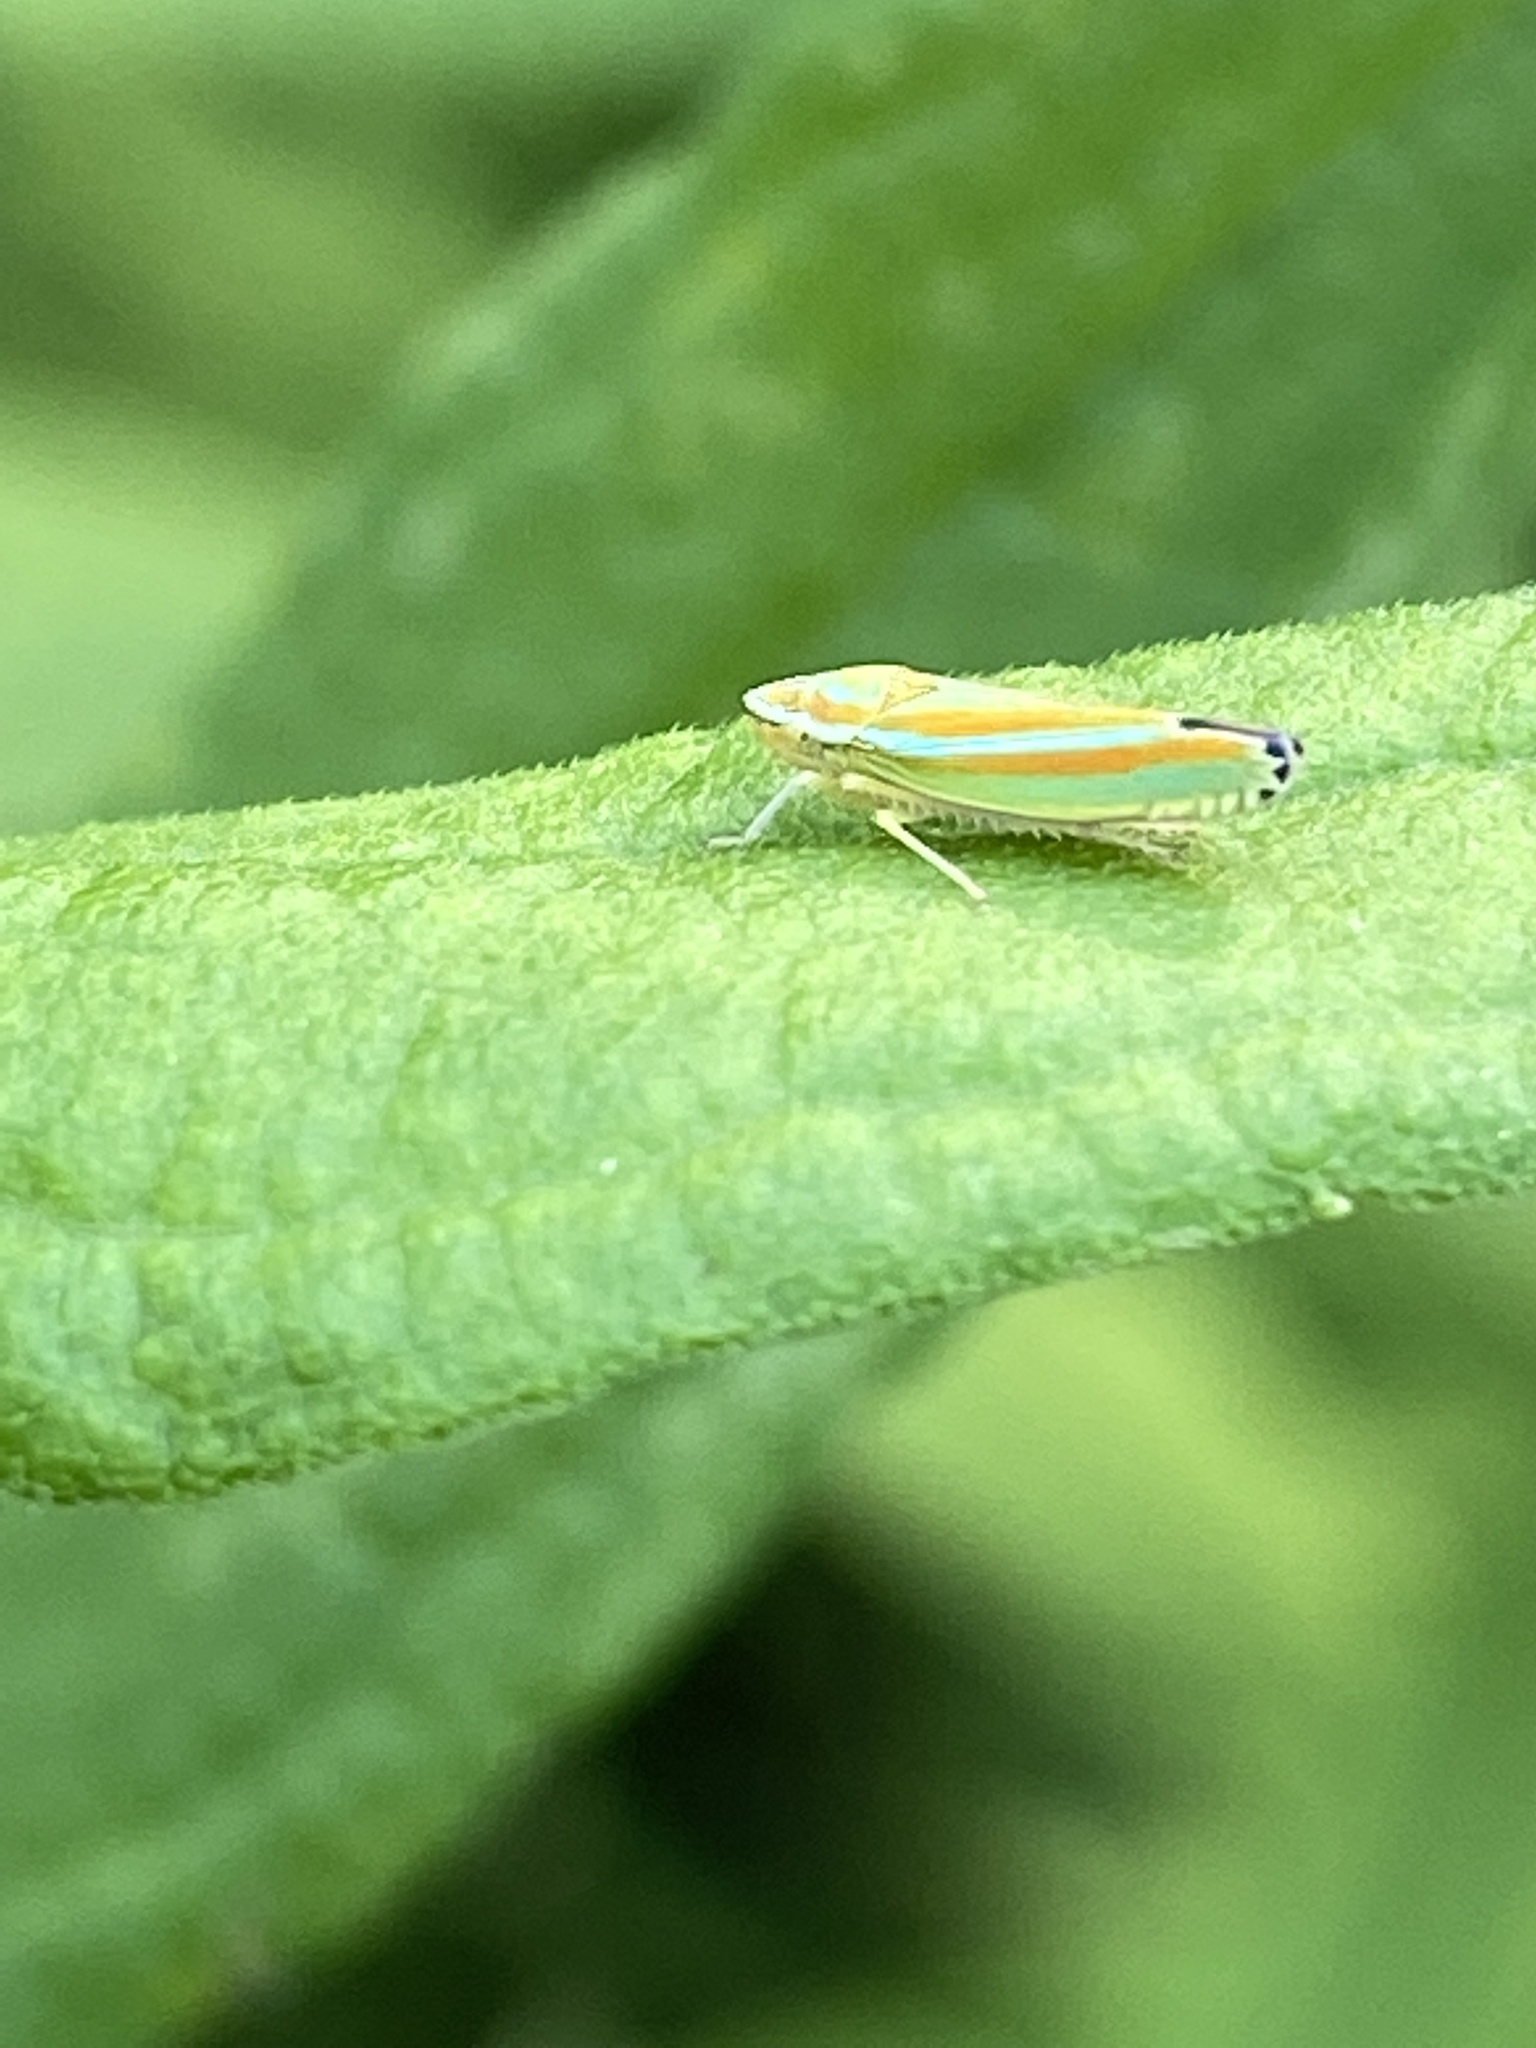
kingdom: Animalia
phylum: Arthropoda
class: Insecta
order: Hemiptera
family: Cicadellidae
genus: Graphocephala
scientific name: Graphocephala versuta
